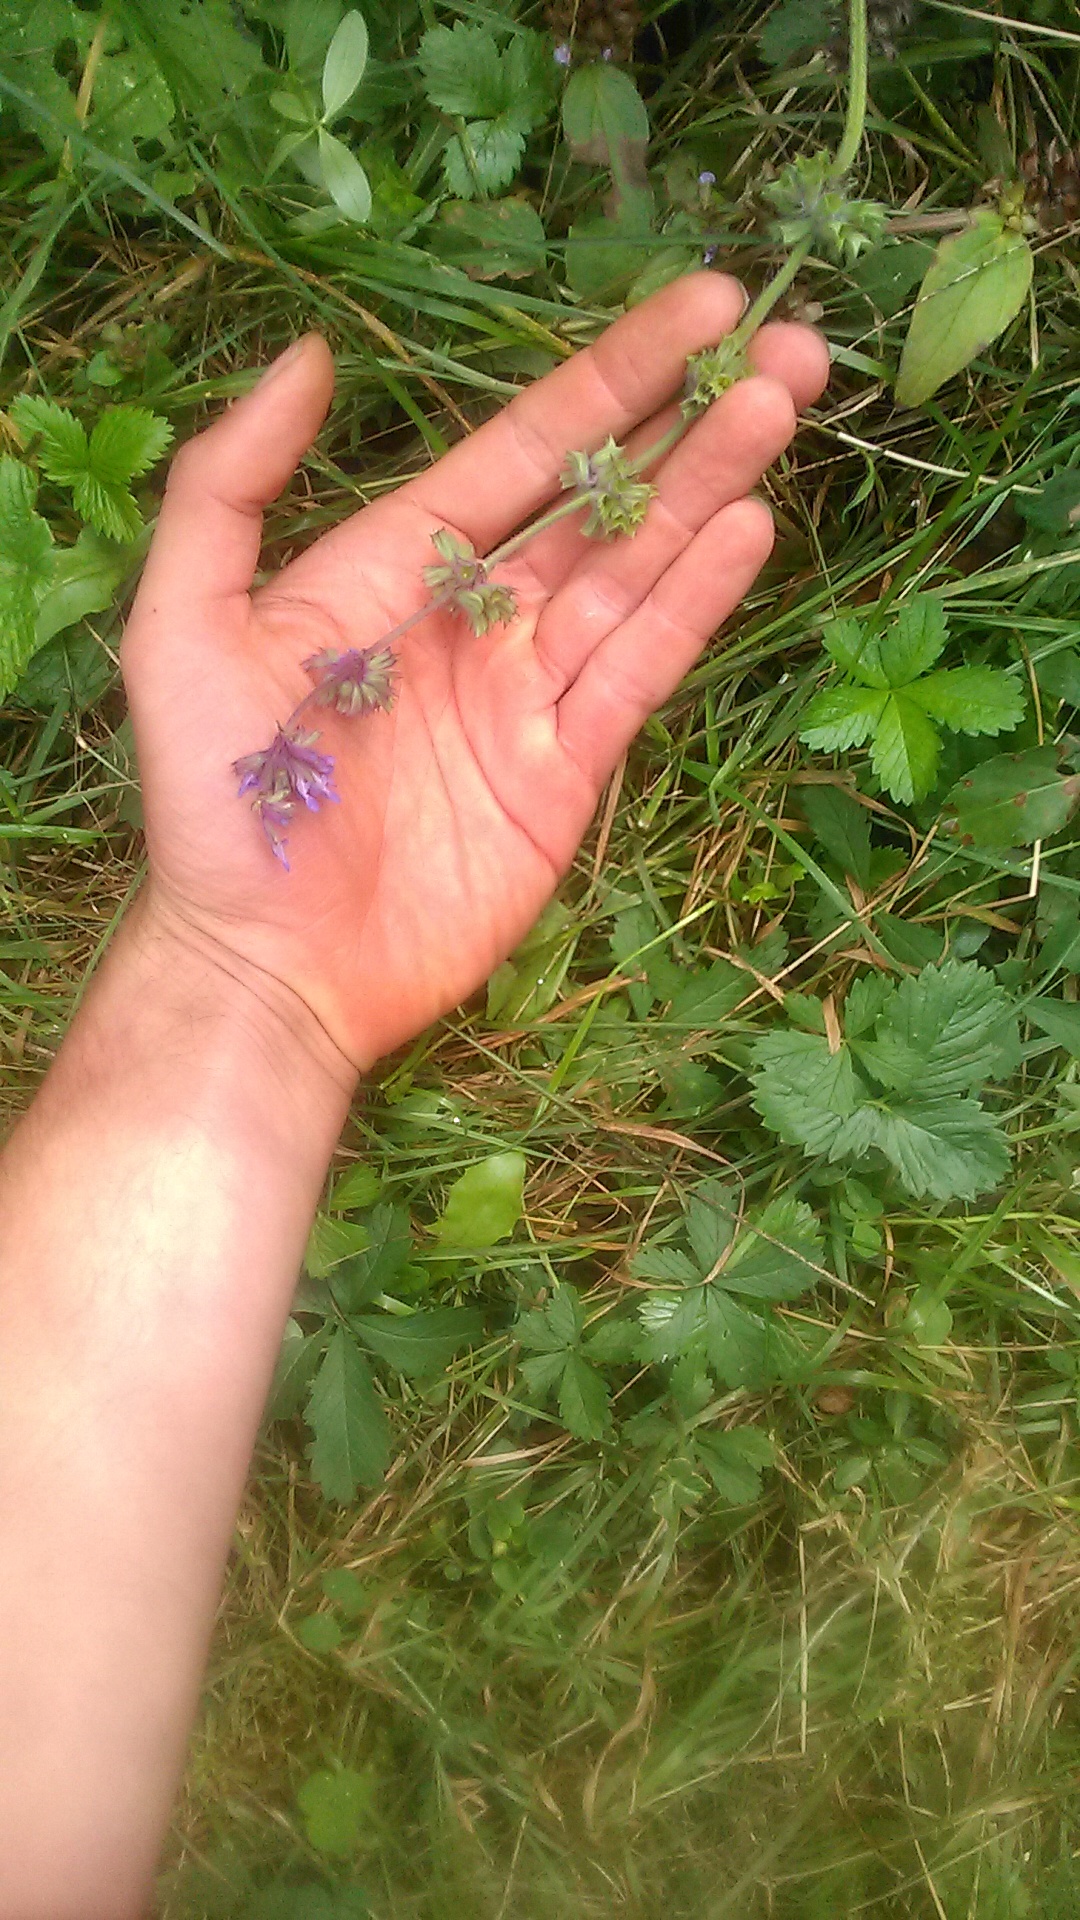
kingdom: Plantae
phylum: Tracheophyta
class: Magnoliopsida
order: Lamiales
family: Lamiaceae
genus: Salvia
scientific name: Salvia verticillata
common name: Whorled clary
